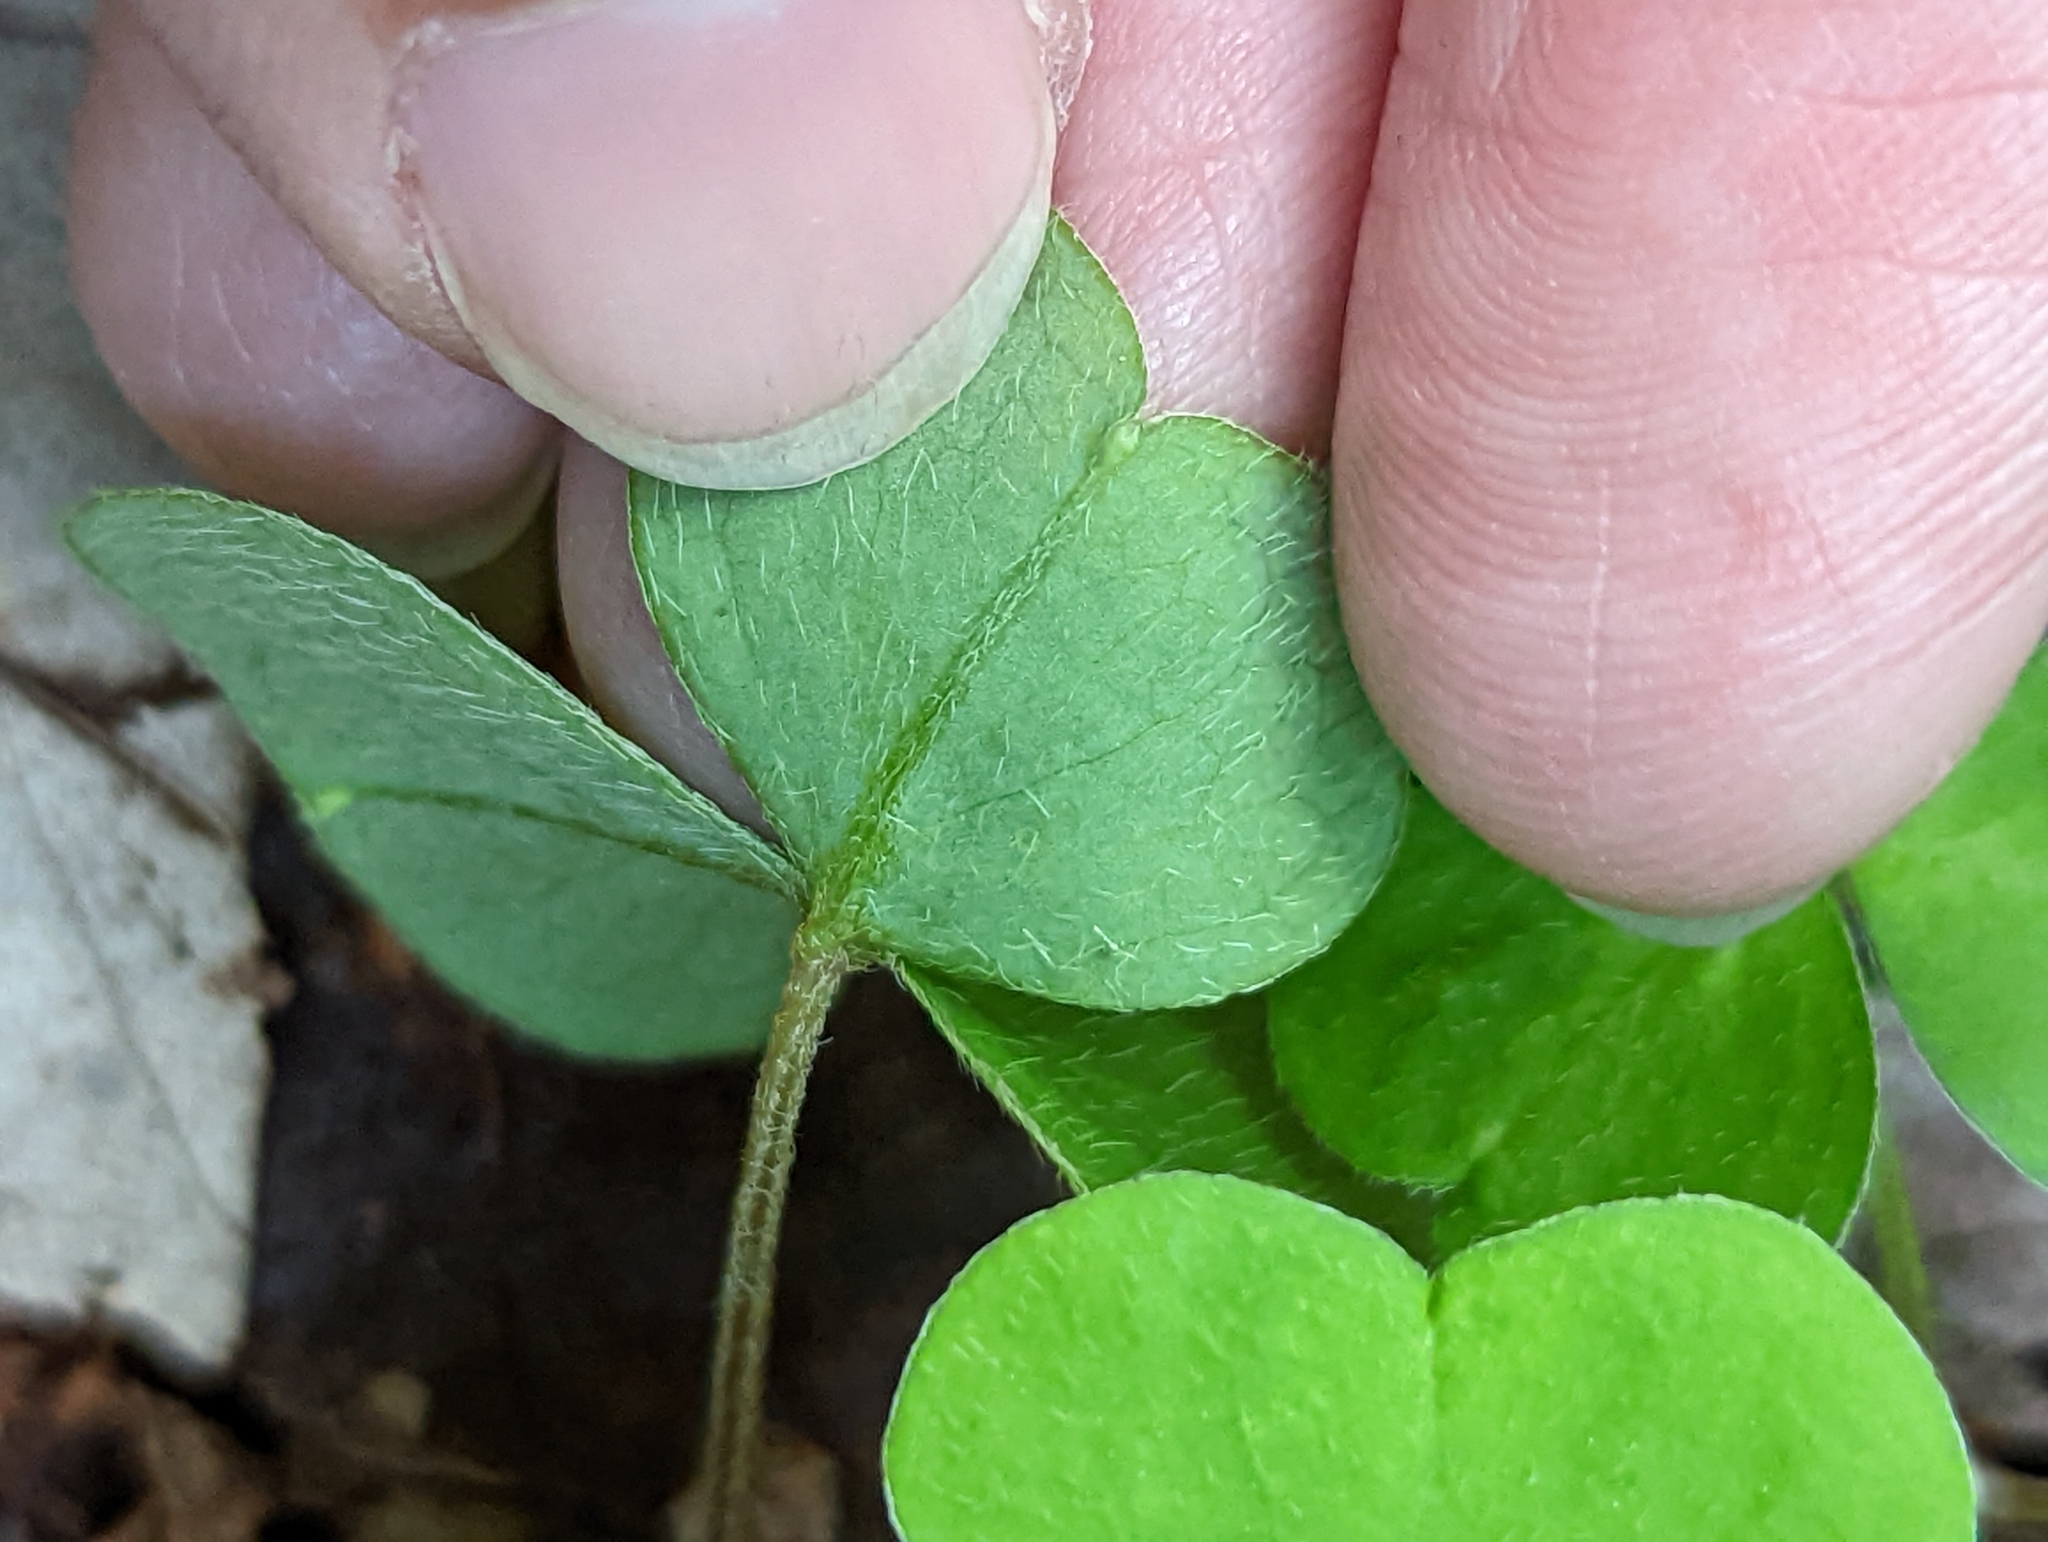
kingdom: Plantae
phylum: Tracheophyta
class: Magnoliopsida
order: Oxalidales
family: Oxalidaceae
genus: Oxalis
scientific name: Oxalis montana
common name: American wood-sorrel
